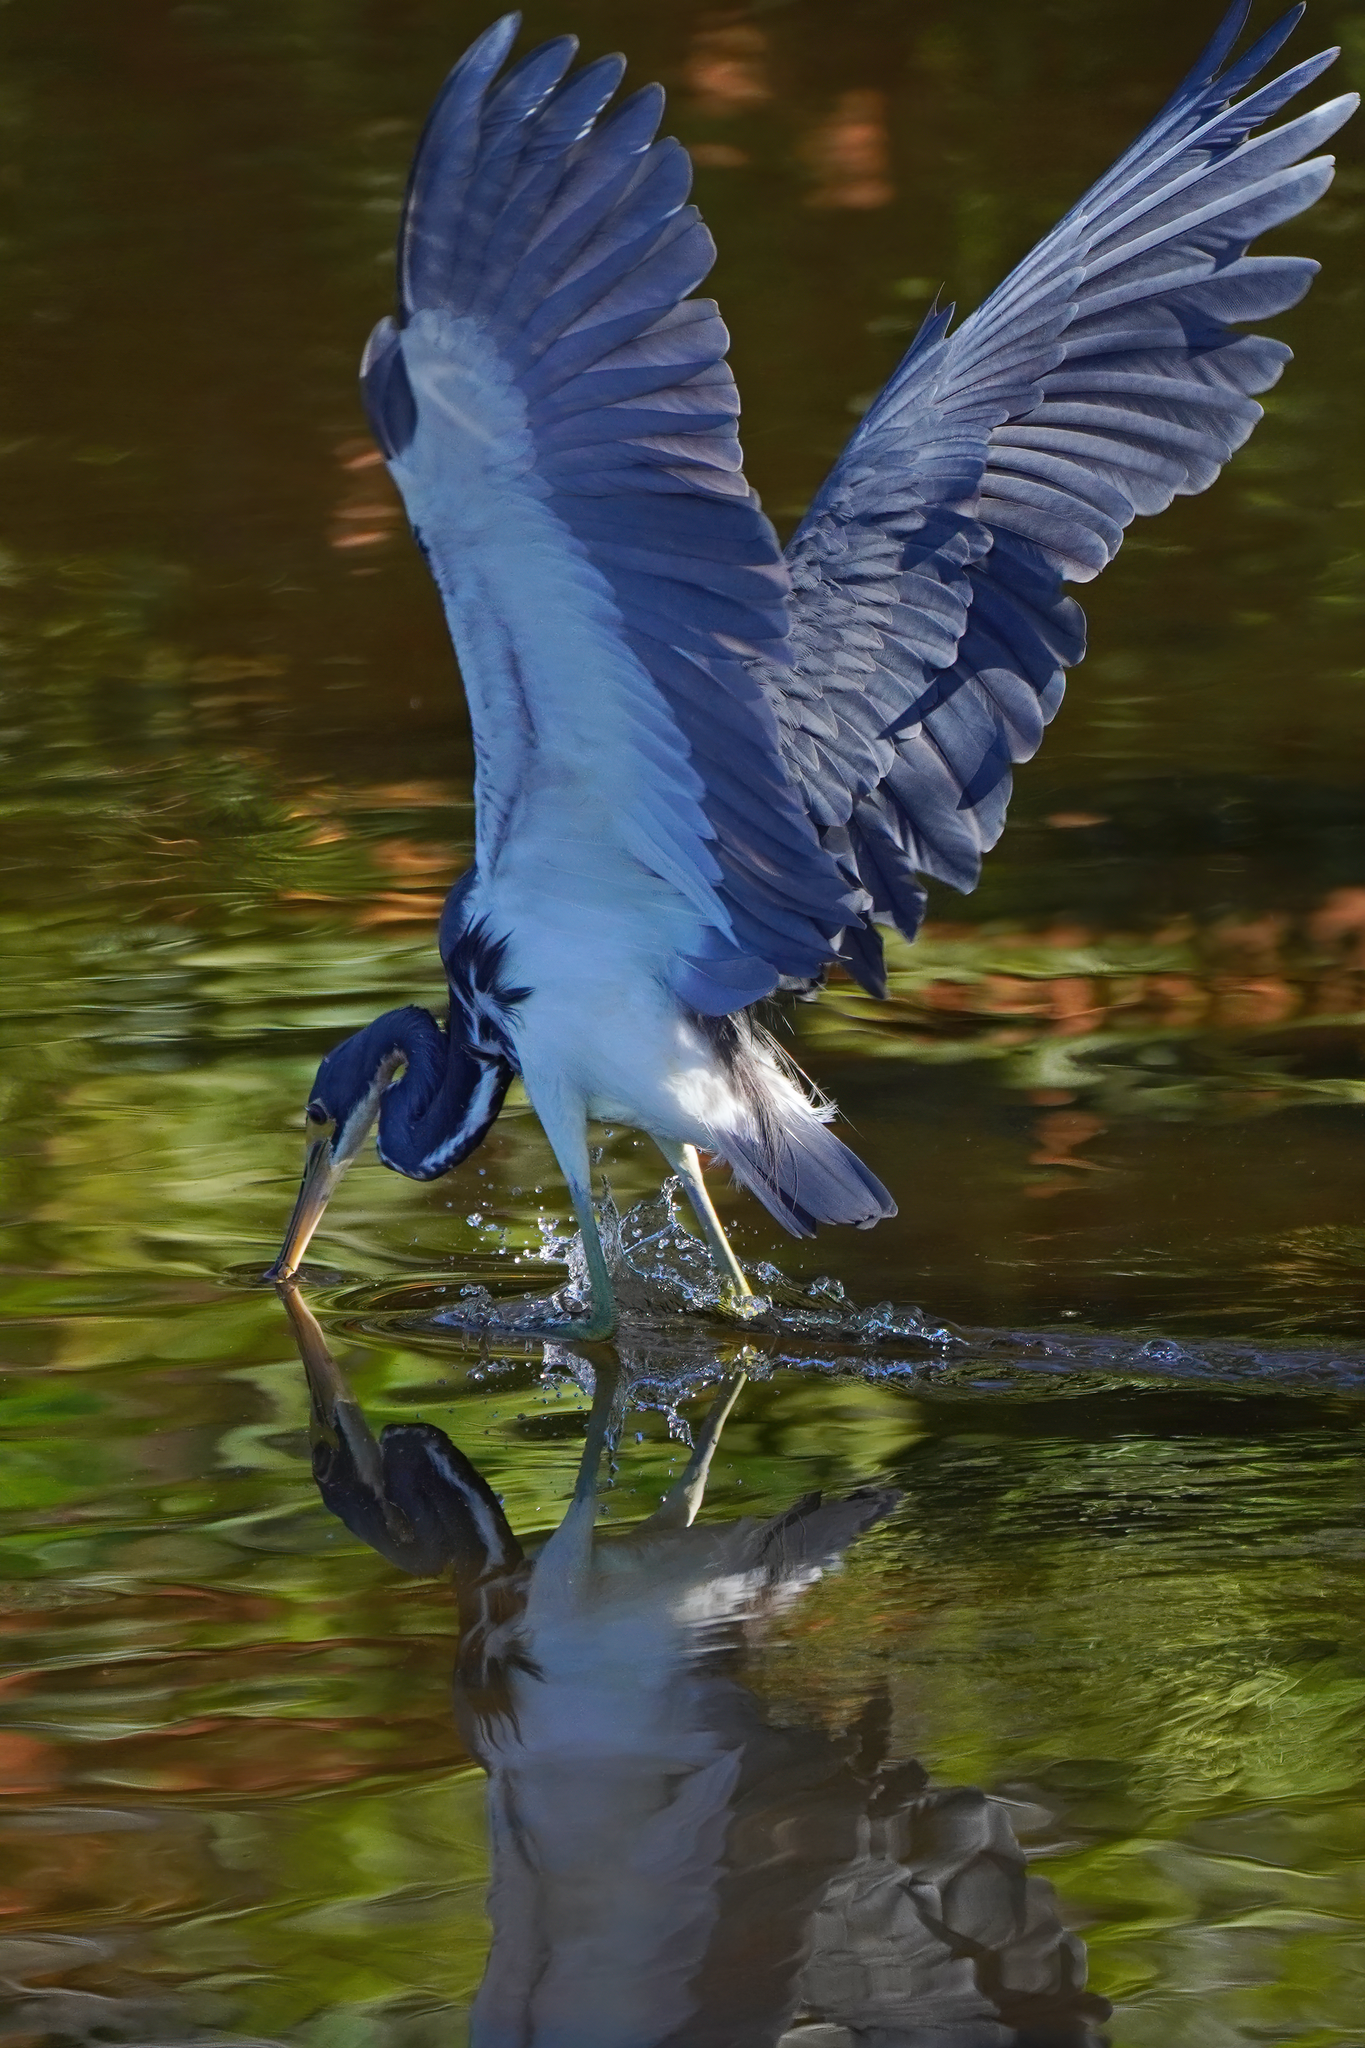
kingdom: Animalia
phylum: Chordata
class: Aves
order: Pelecaniformes
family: Ardeidae
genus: Egretta
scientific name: Egretta tricolor
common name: Tricolored heron
